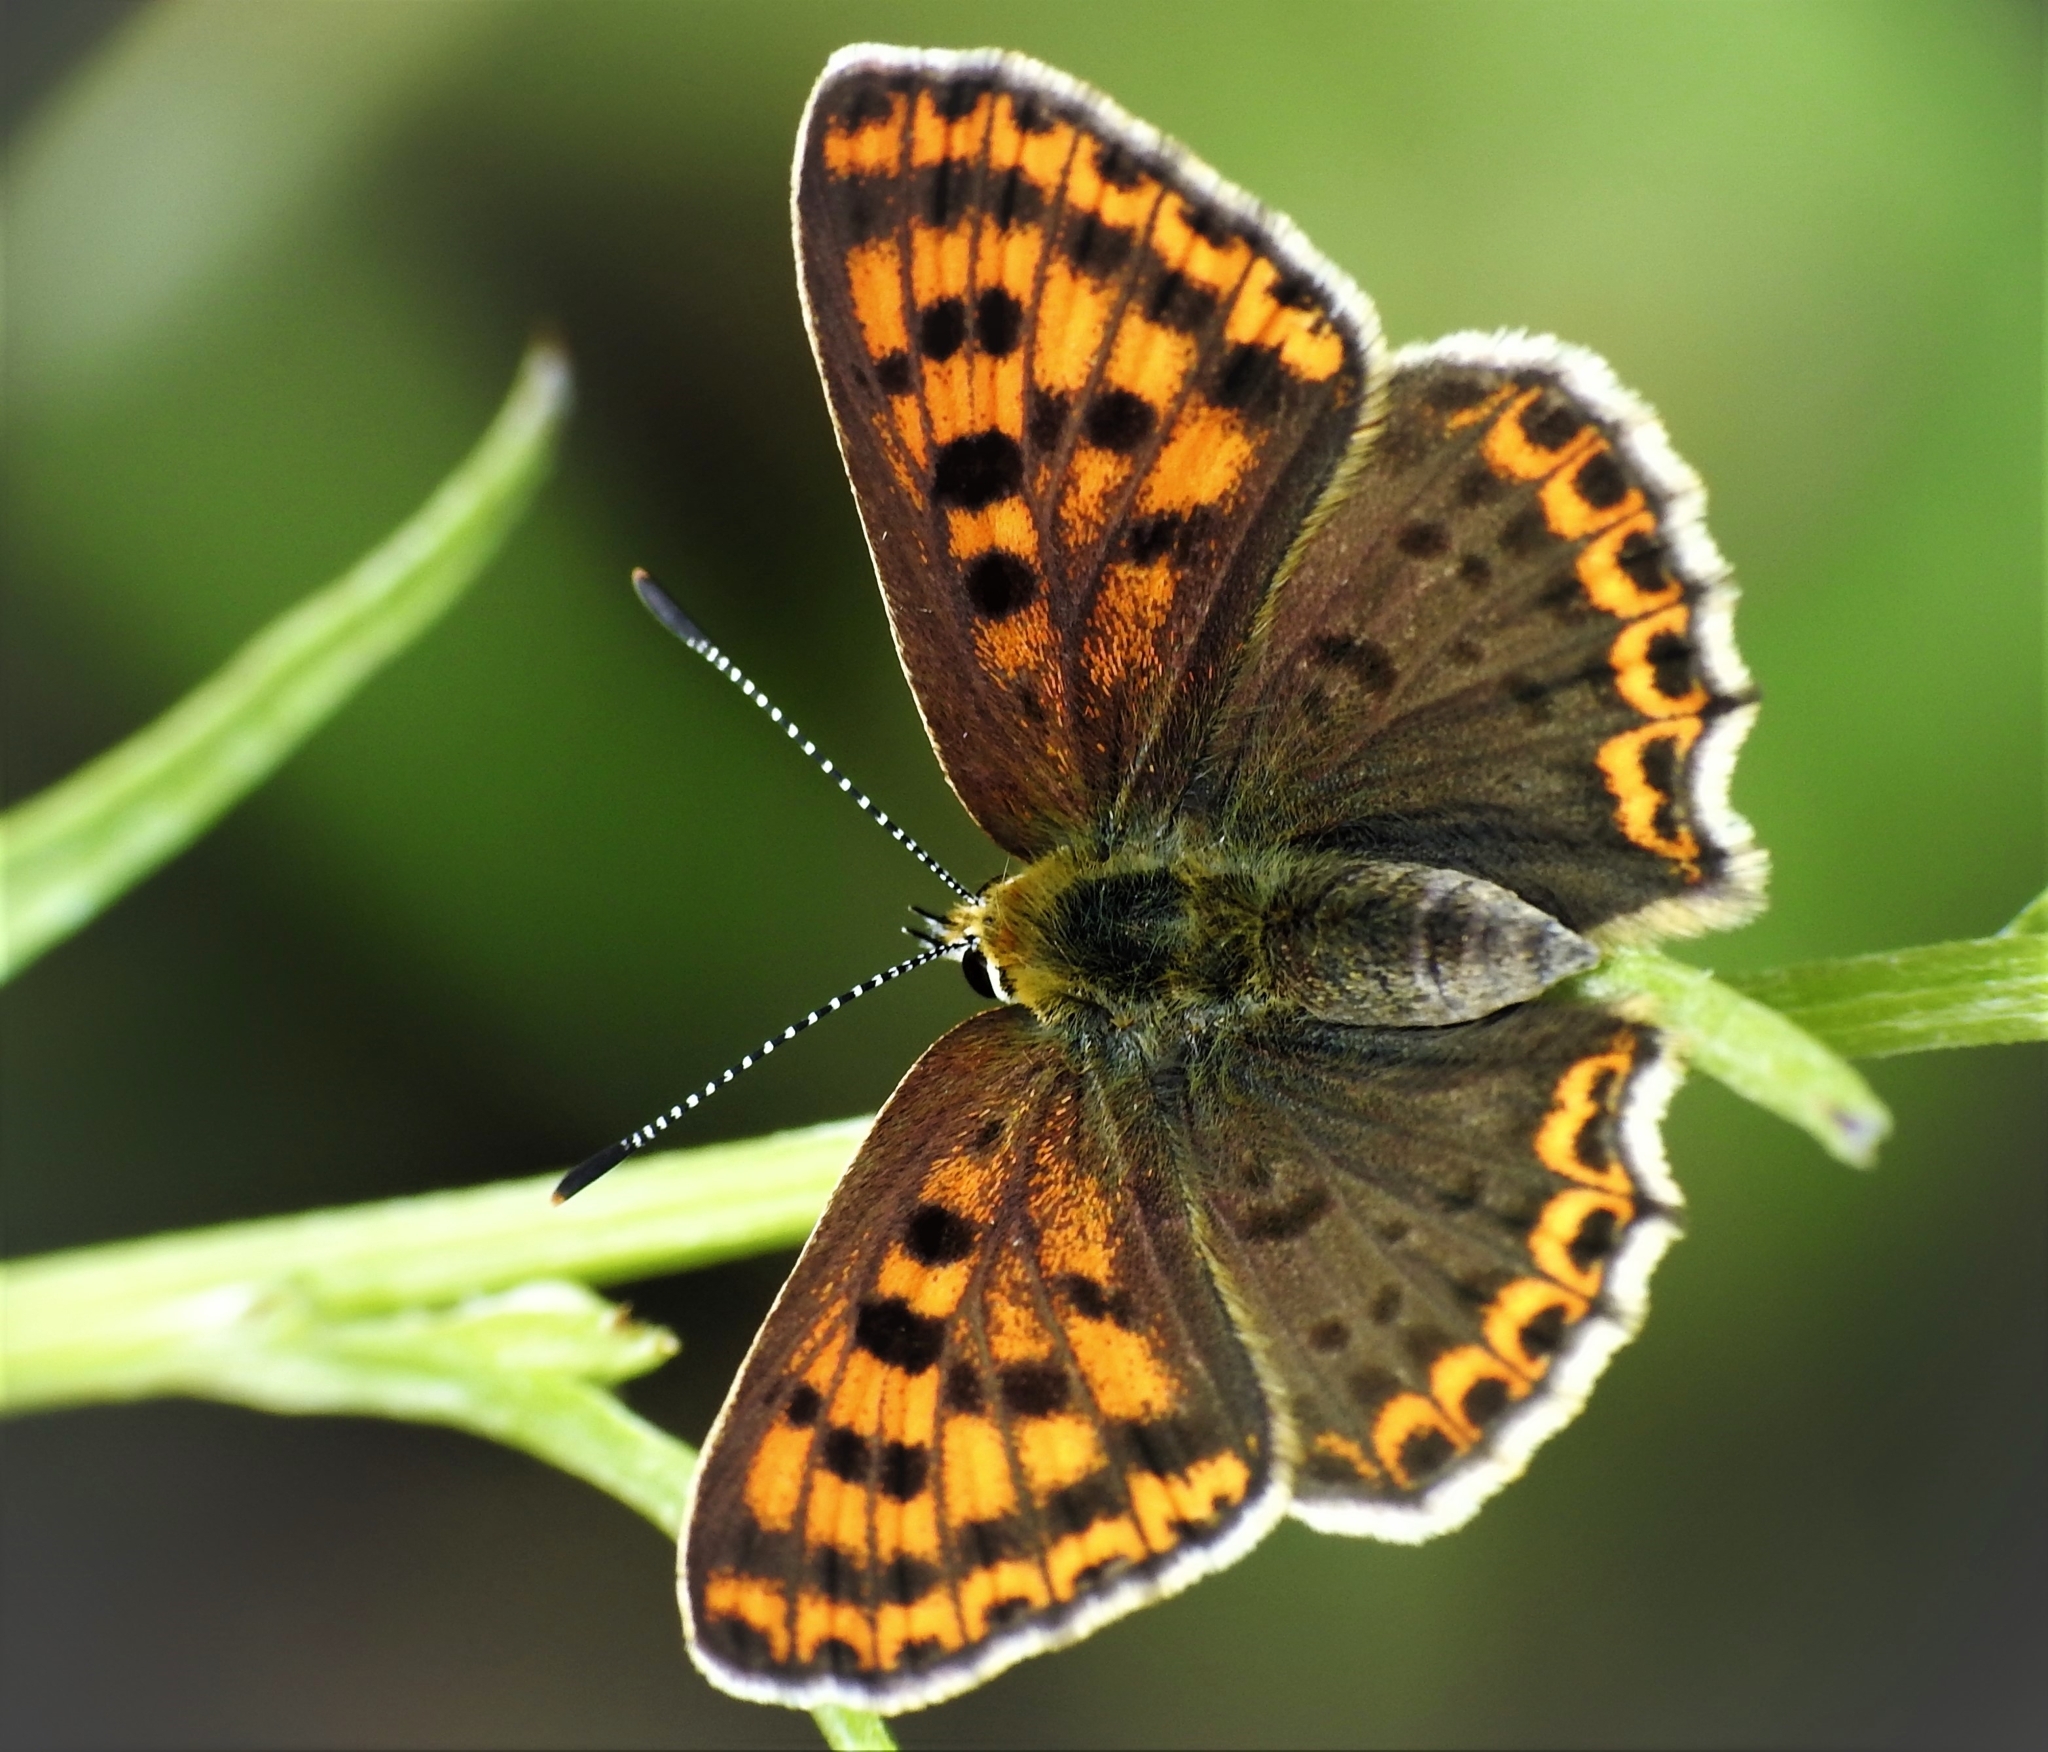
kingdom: Animalia
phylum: Arthropoda
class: Insecta
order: Lepidoptera
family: Lycaenidae
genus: Loweia
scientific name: Loweia tityrus
